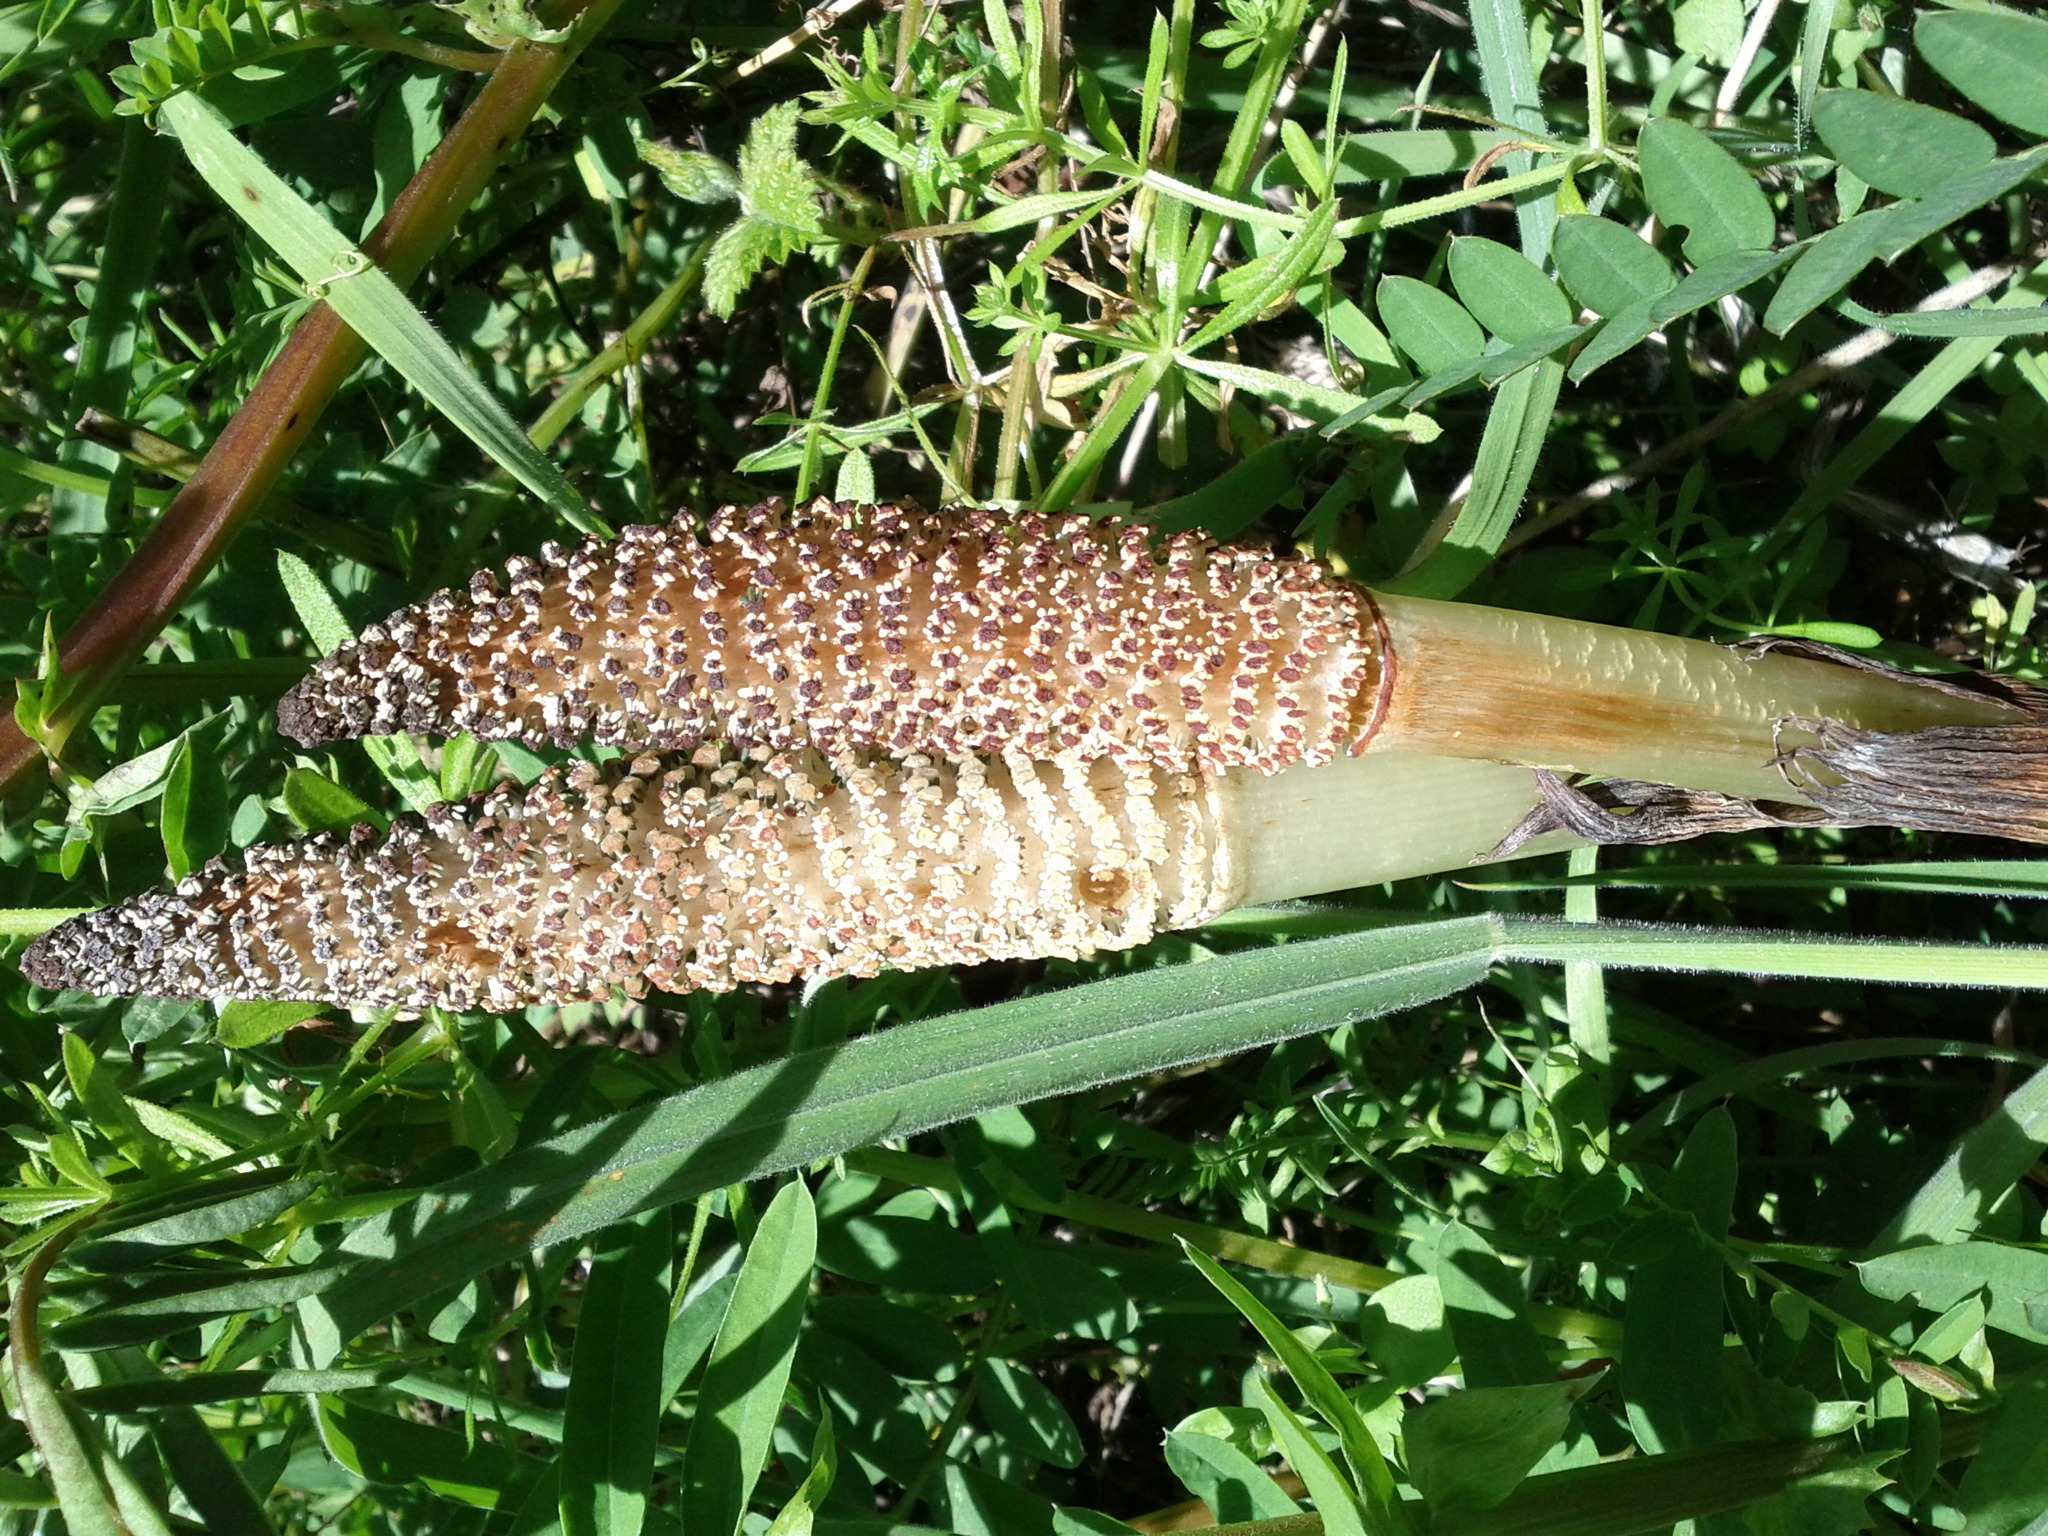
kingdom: Plantae
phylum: Tracheophyta
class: Polypodiopsida
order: Equisetales
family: Equisetaceae
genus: Equisetum
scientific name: Equisetum telmateia
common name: Great horsetail
